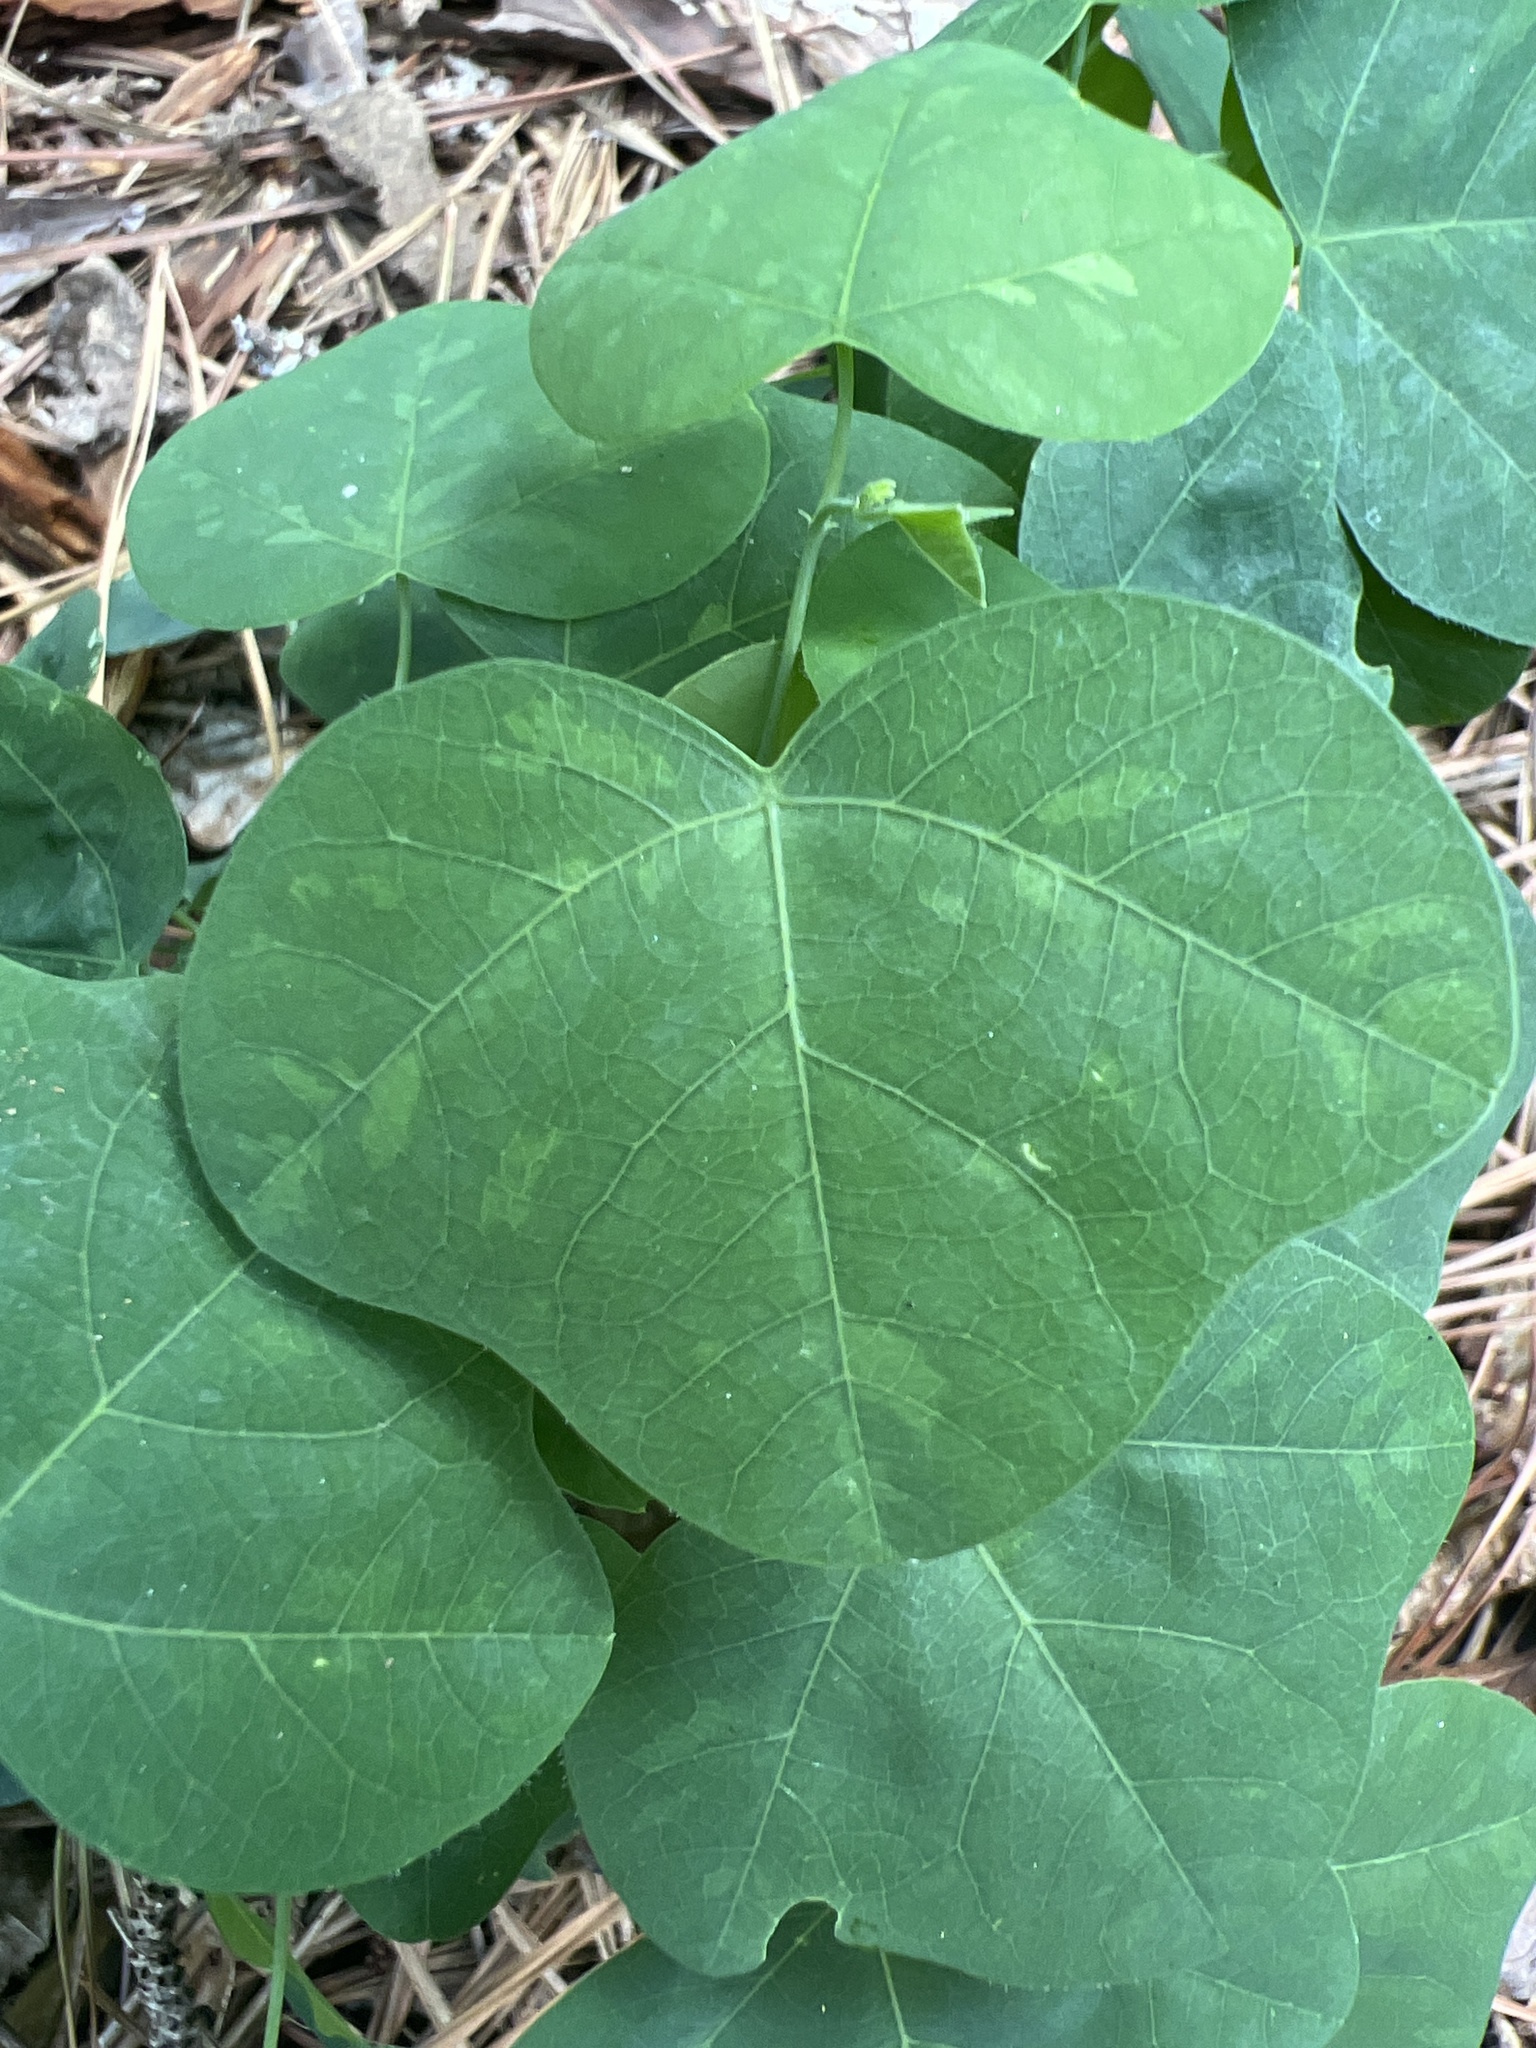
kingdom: Plantae
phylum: Tracheophyta
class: Magnoliopsida
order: Malpighiales
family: Passifloraceae
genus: Passiflora
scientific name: Passiflora lutea
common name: Yellow passionflower
